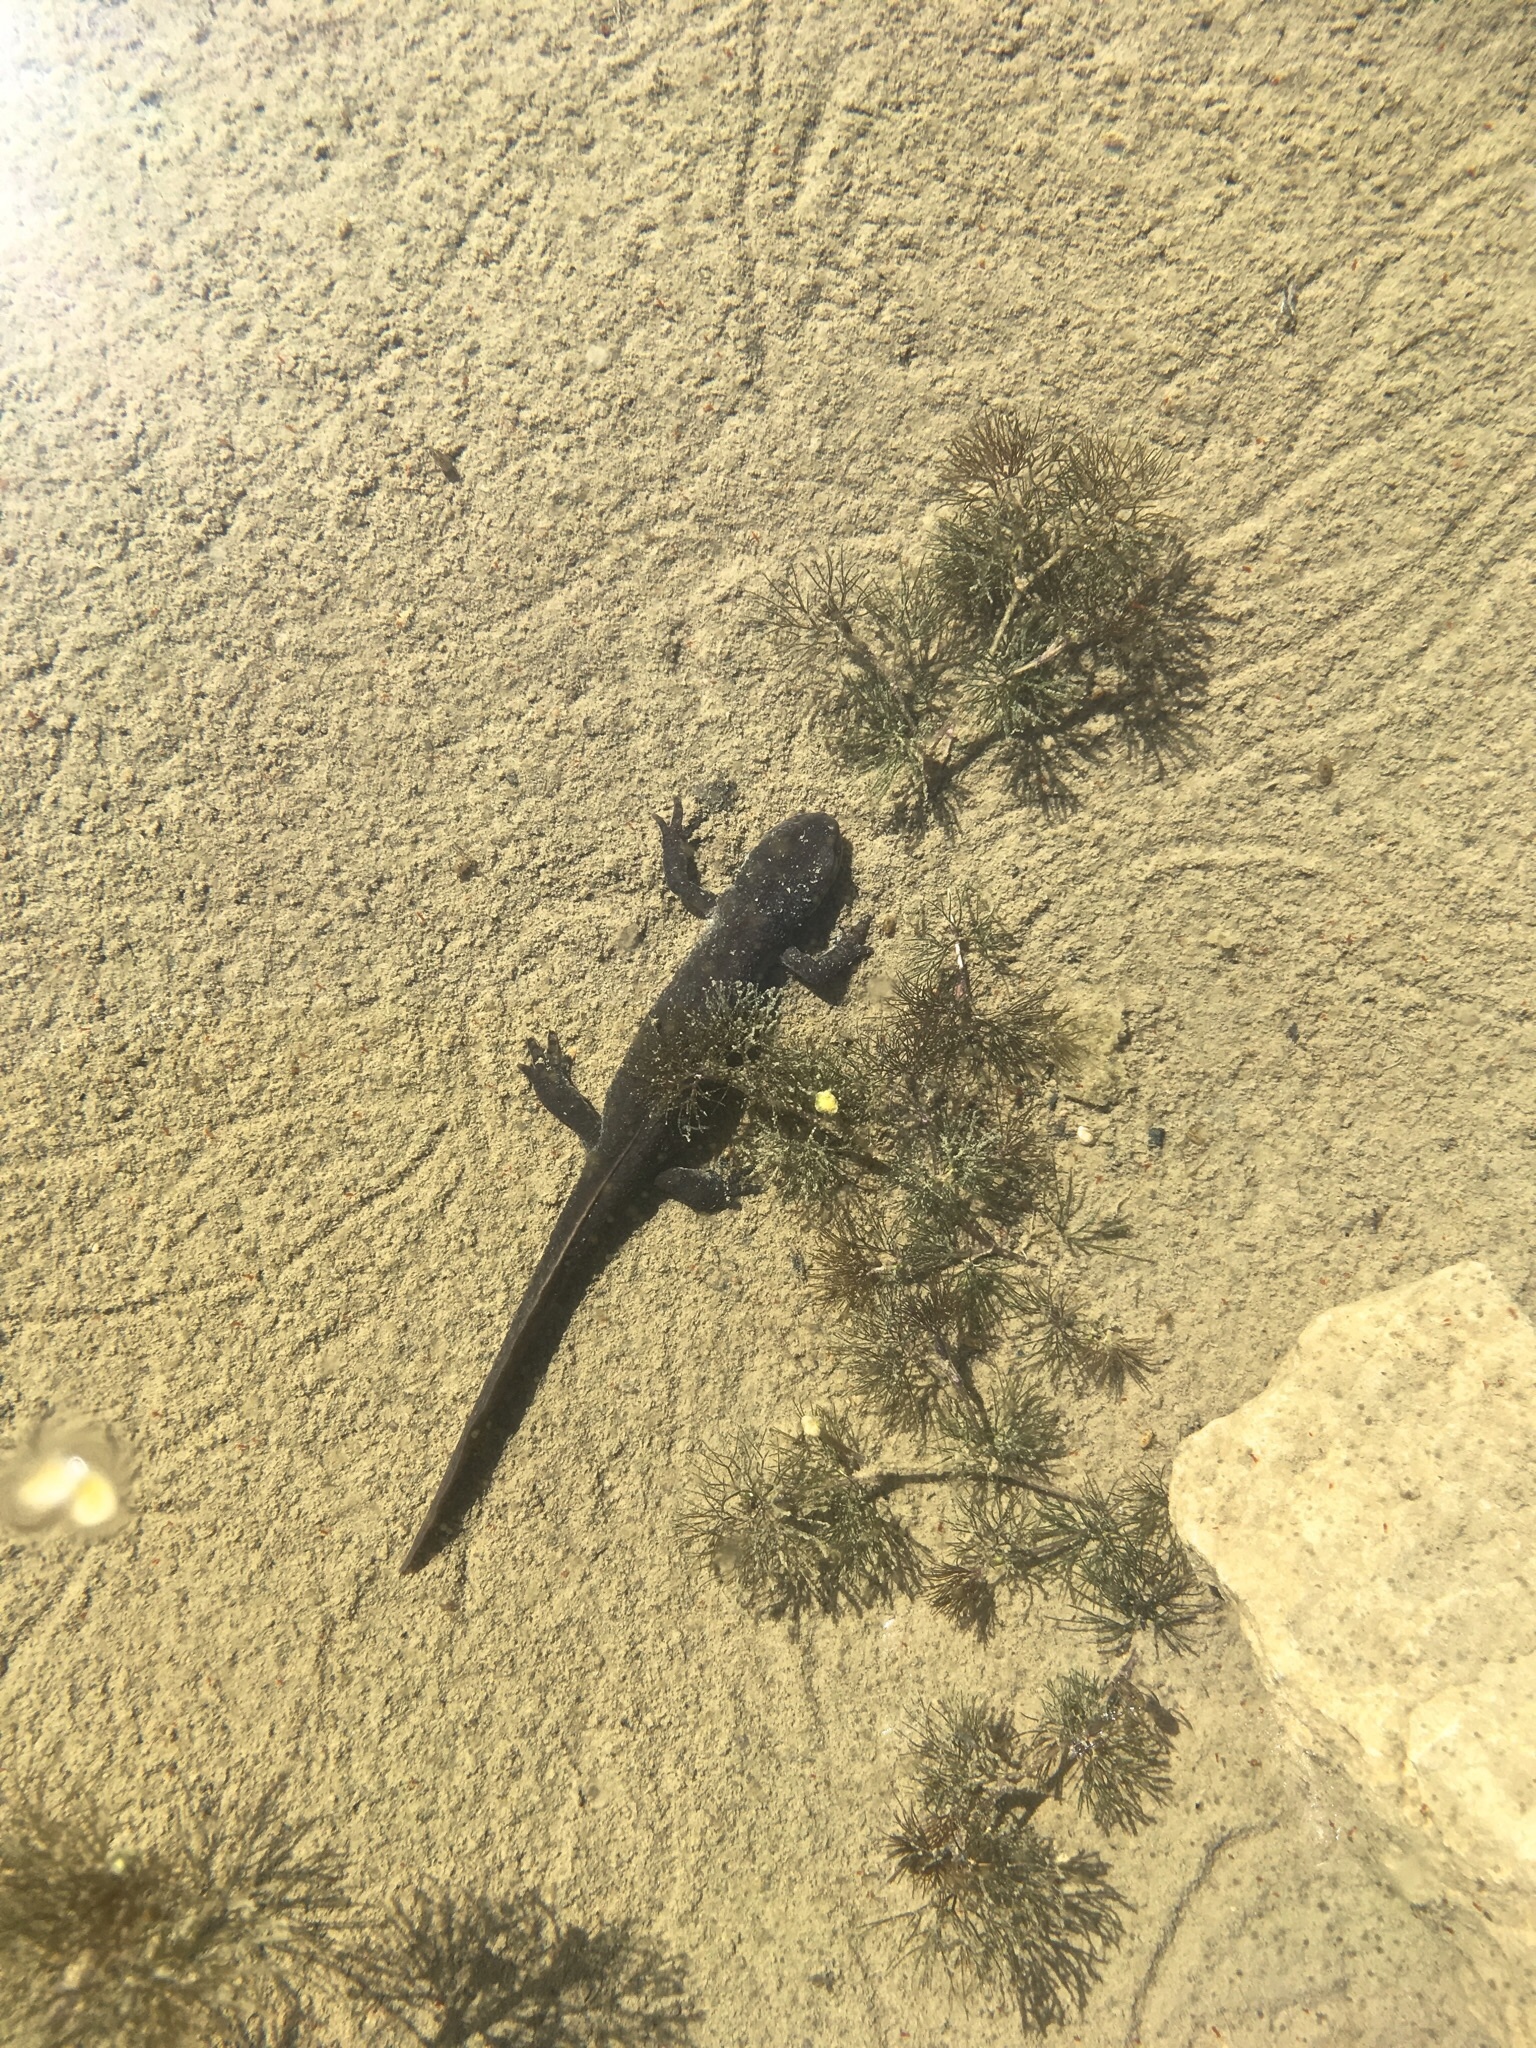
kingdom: Animalia
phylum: Chordata
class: Amphibia
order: Caudata
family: Salamandridae
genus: Ichthyosaura
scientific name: Ichthyosaura alpestris
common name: Alpine newt
